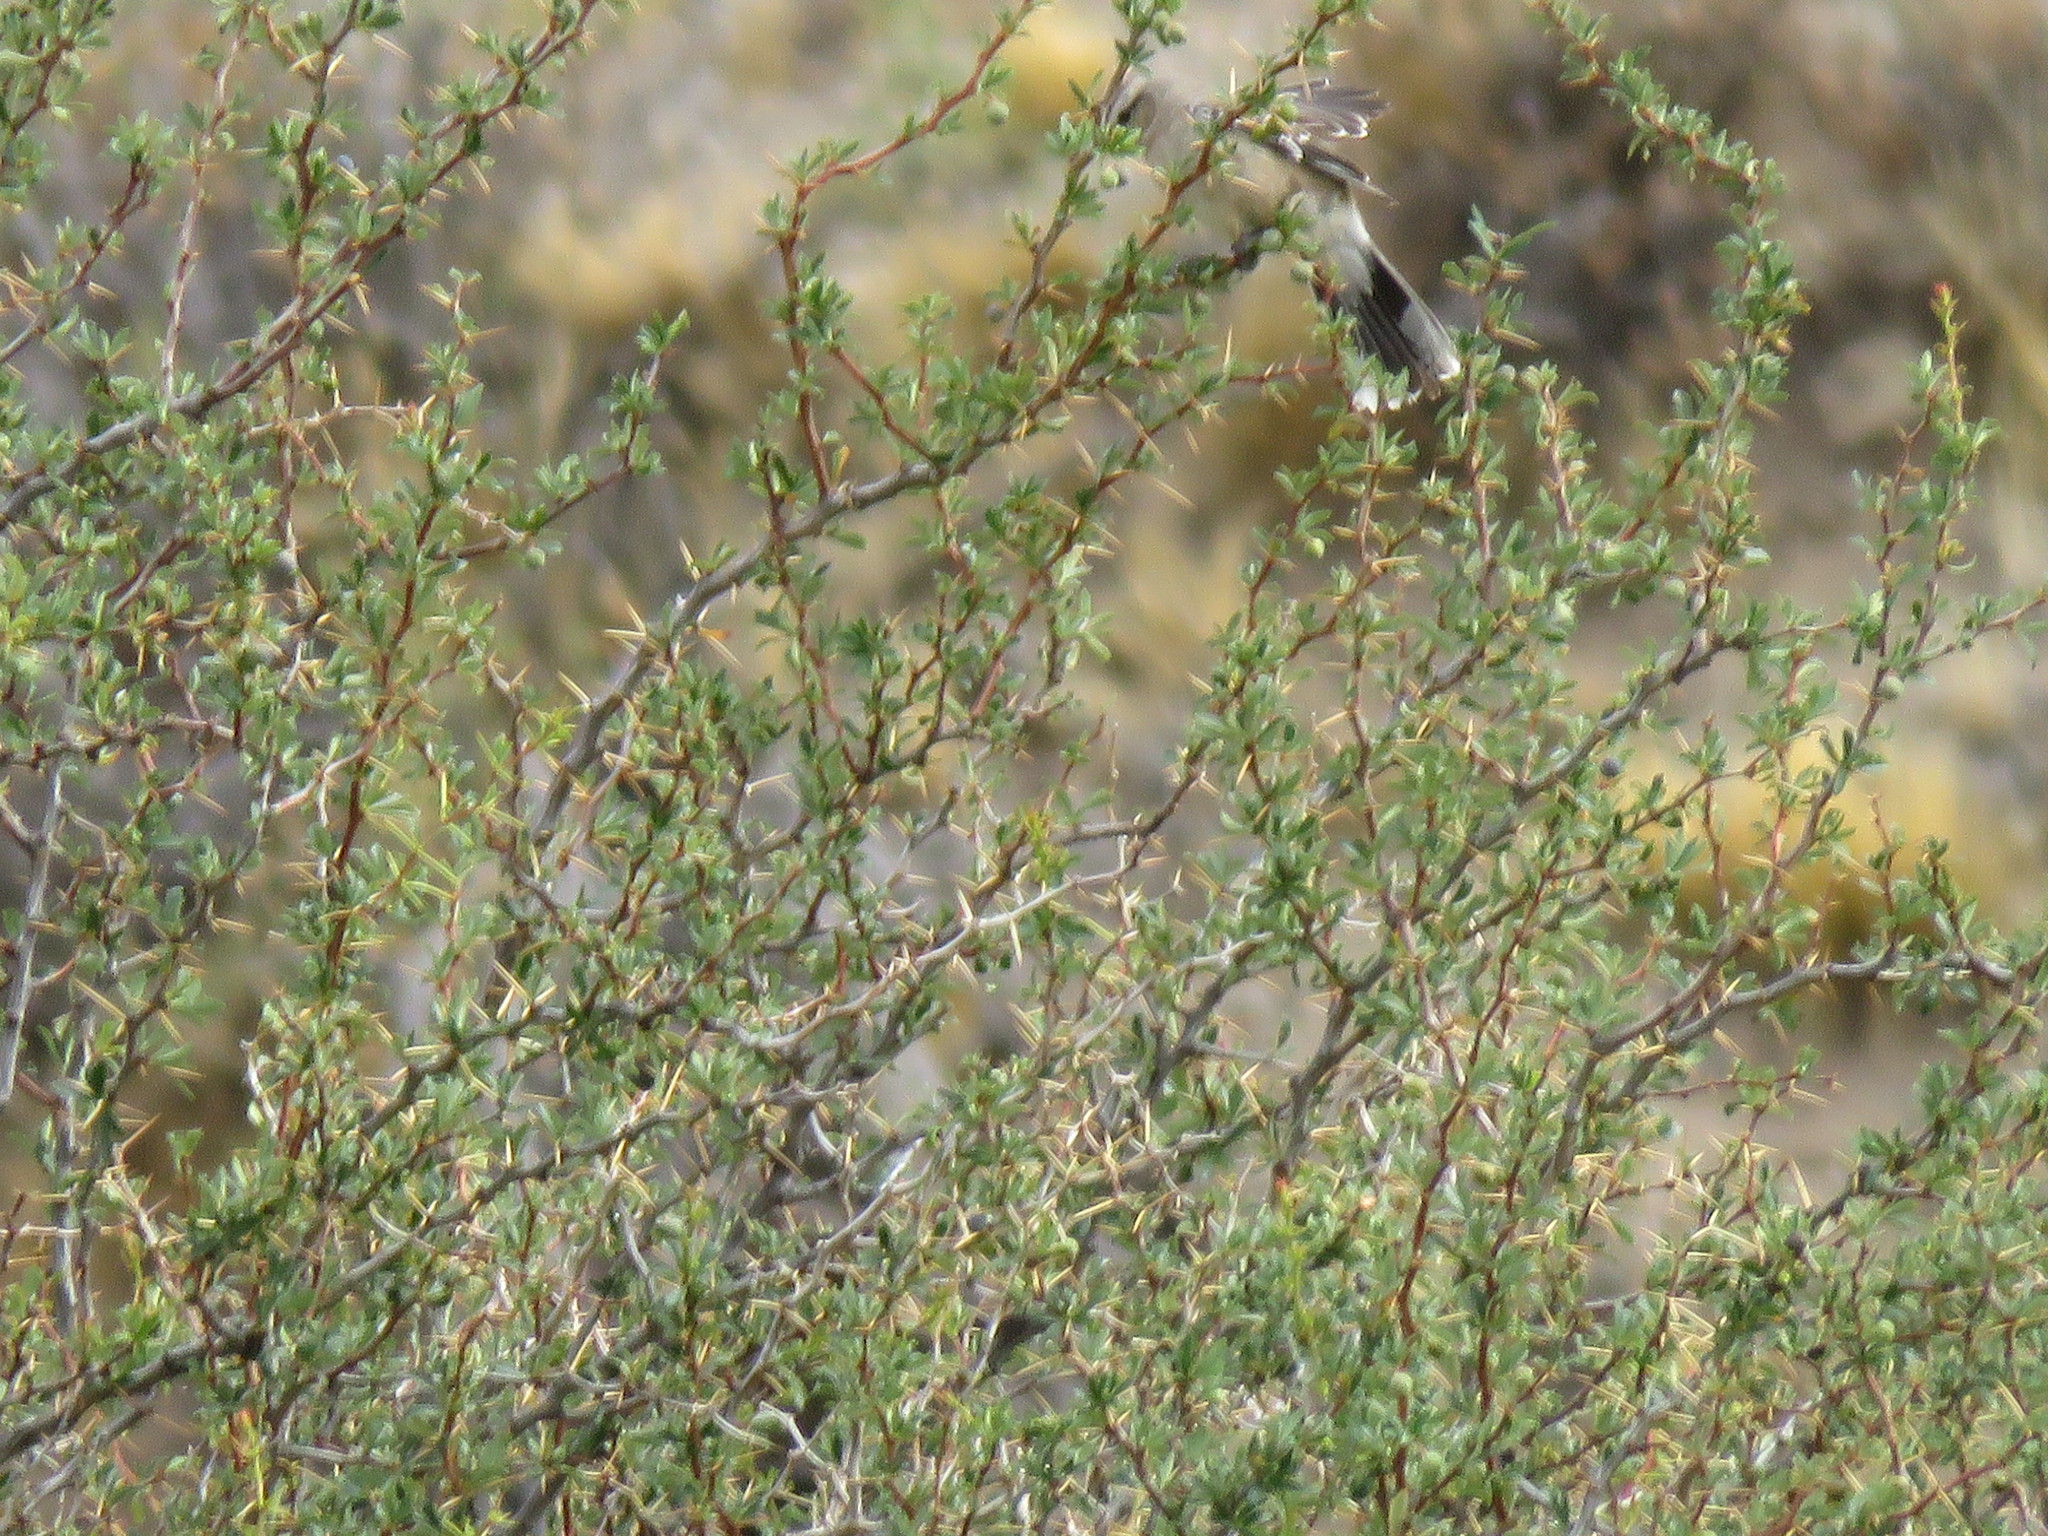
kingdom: Animalia
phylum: Chordata
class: Aves
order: Passeriformes
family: Mimidae
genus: Mimus
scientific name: Mimus patagonicus
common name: Patagonian mockingbird
